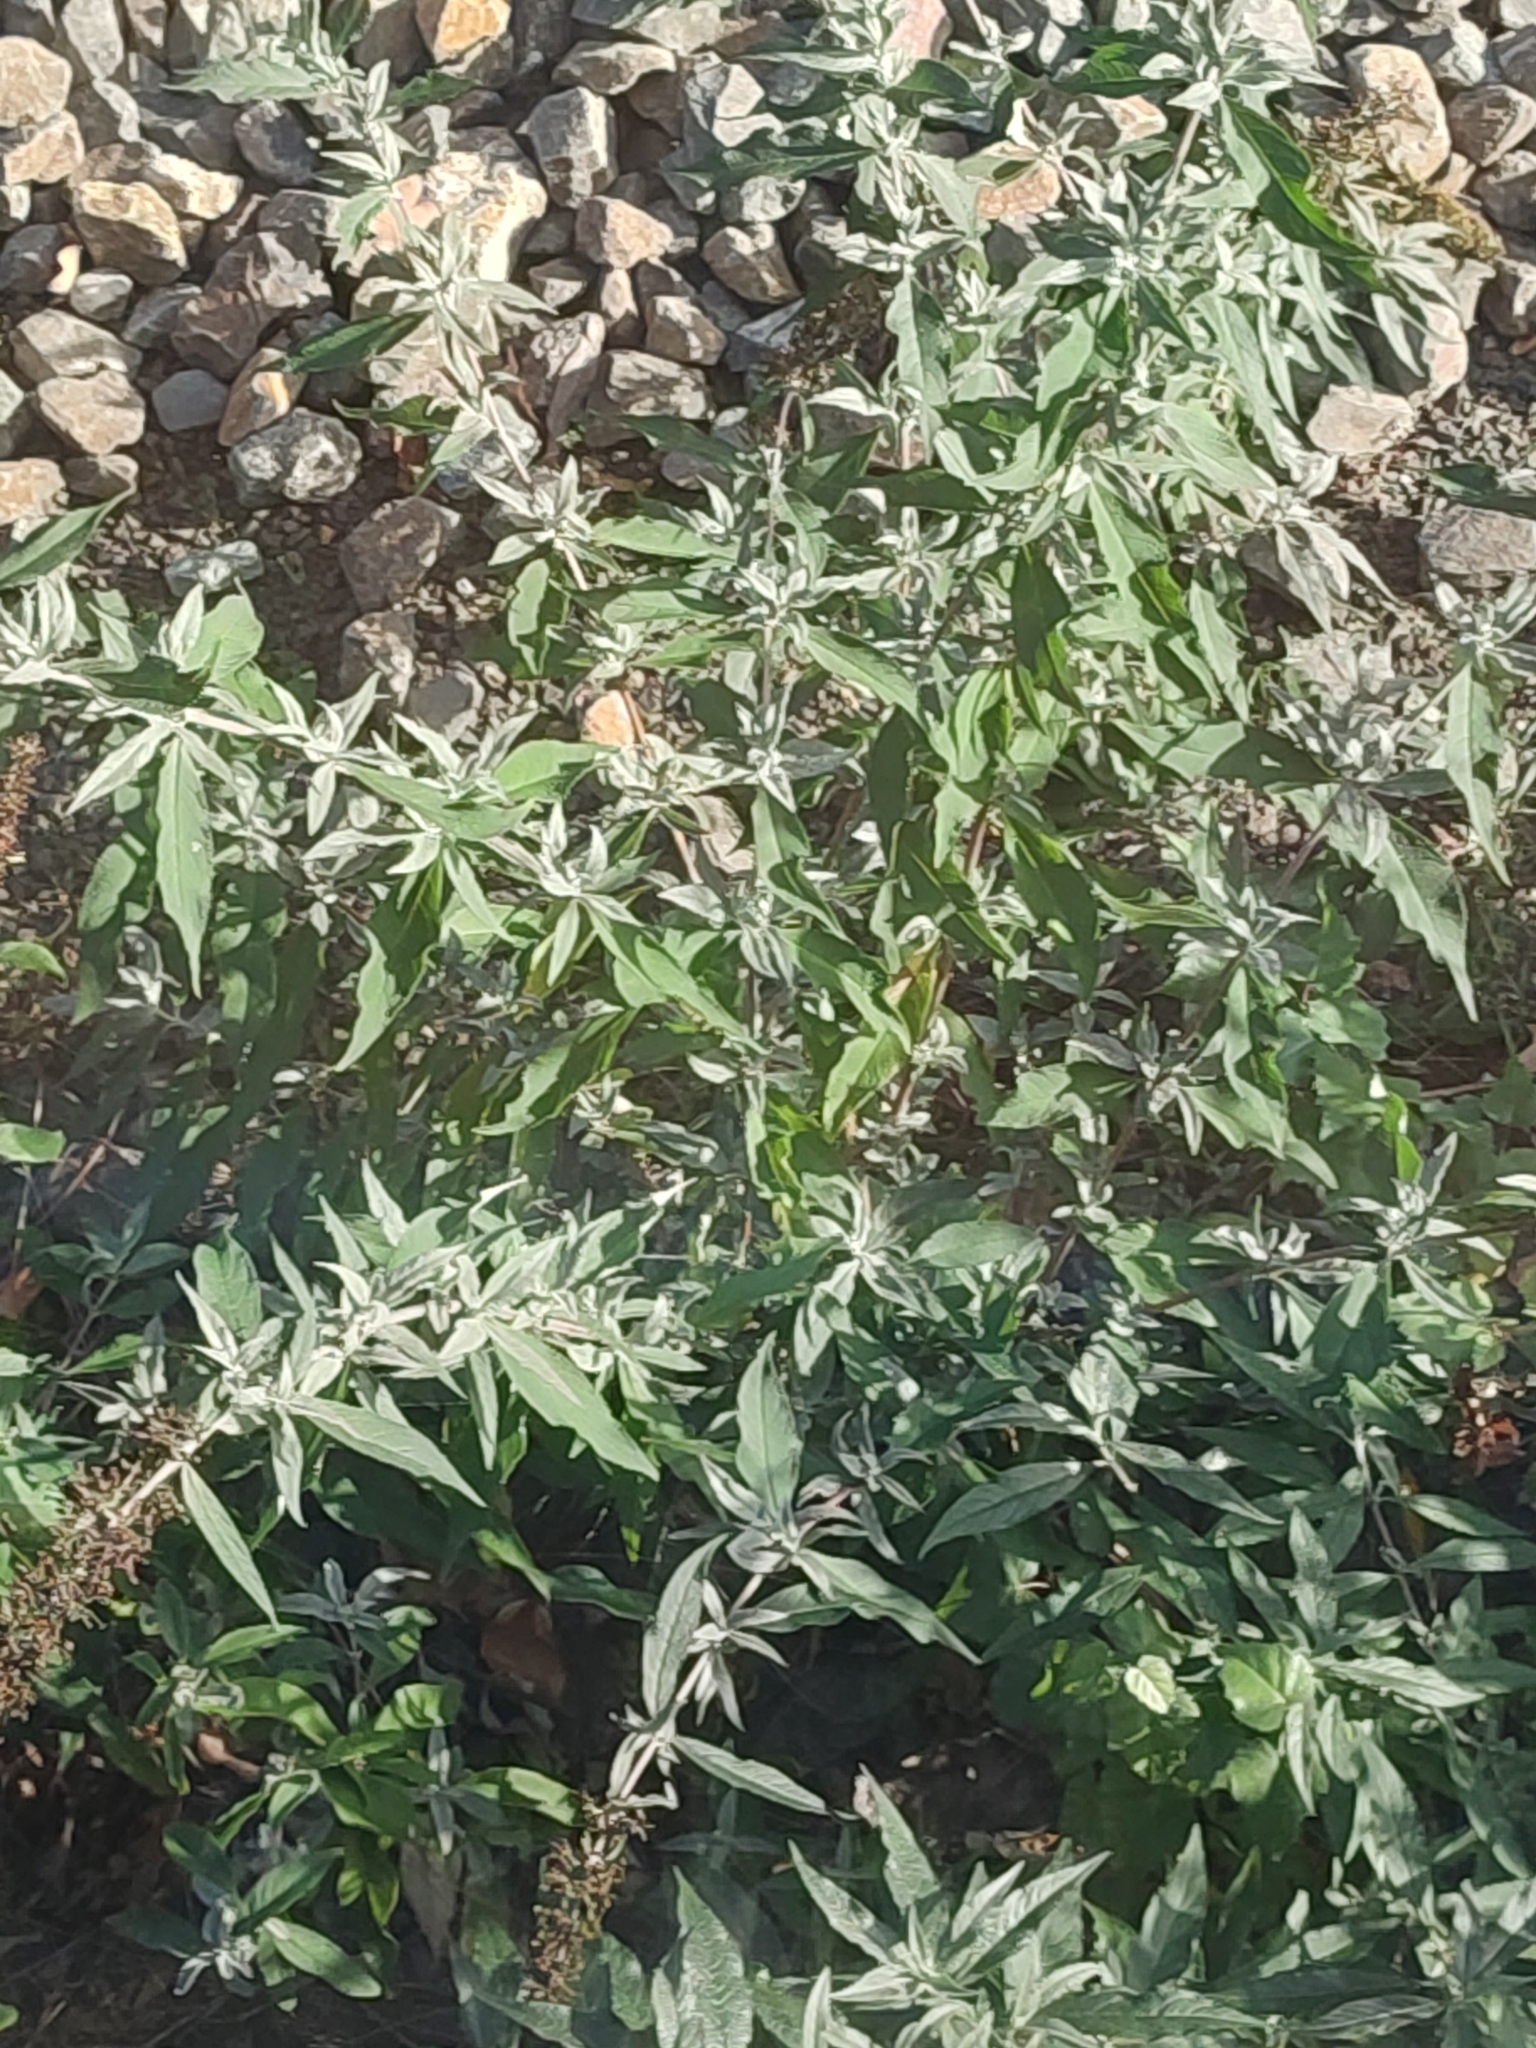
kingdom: Plantae
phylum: Tracheophyta
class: Magnoliopsida
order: Lamiales
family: Scrophulariaceae
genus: Buddleja
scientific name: Buddleja davidii
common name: Butterfly-bush
